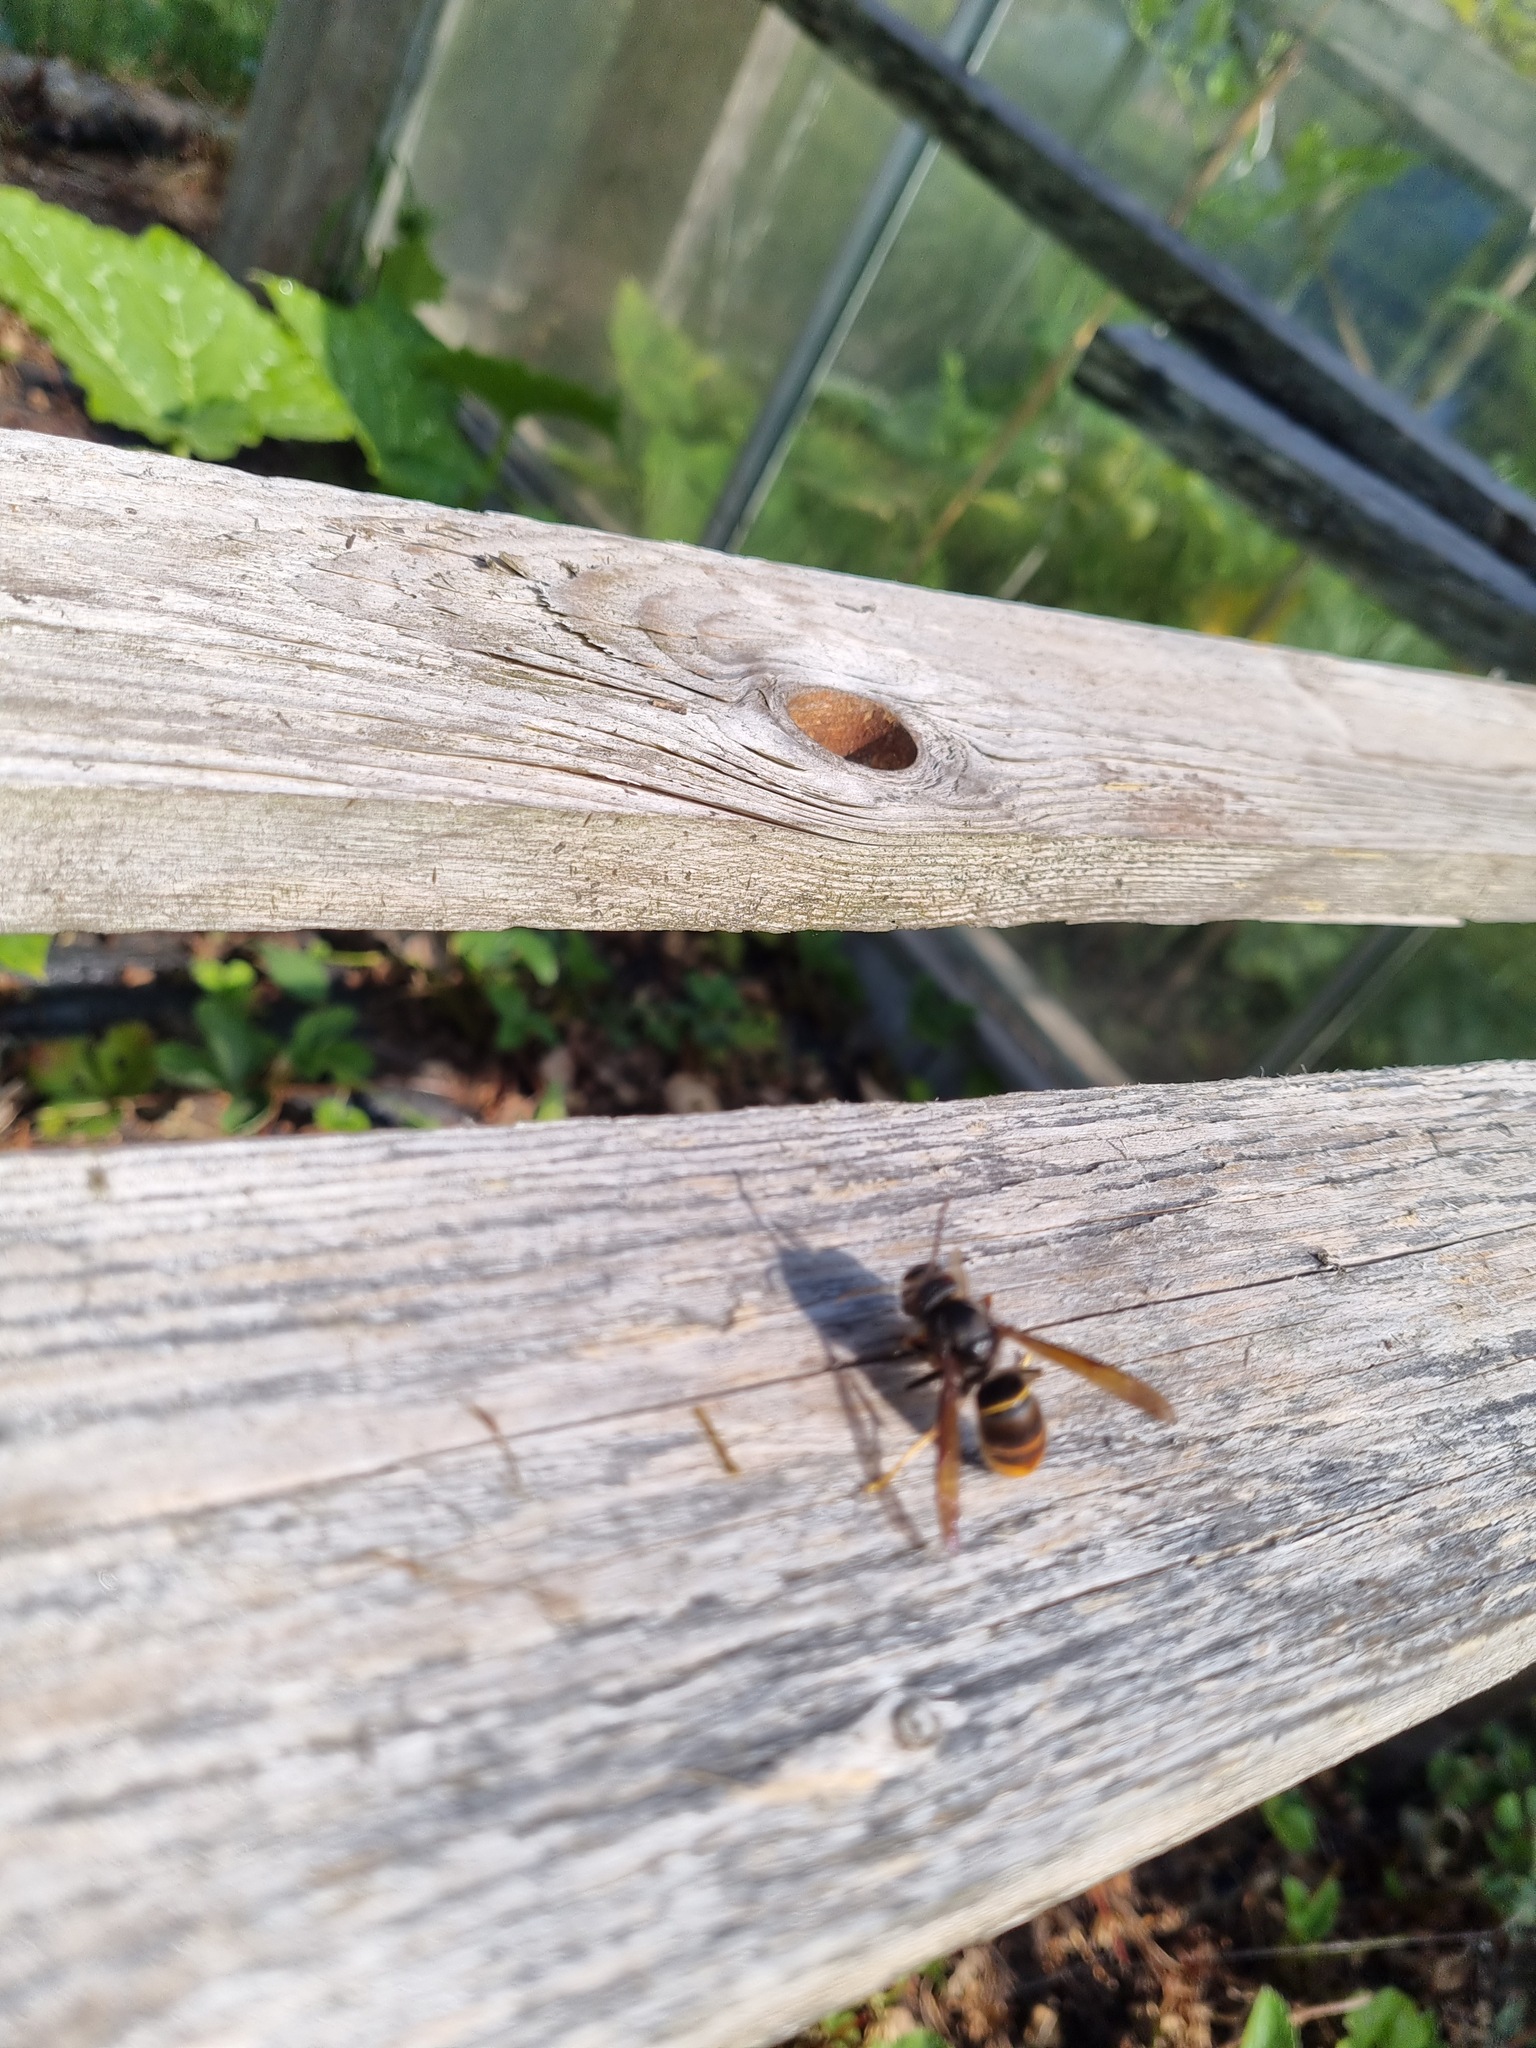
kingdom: Animalia
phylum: Arthropoda
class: Insecta
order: Hymenoptera
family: Vespidae
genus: Vespa
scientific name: Vespa velutina
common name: Asian hornet
